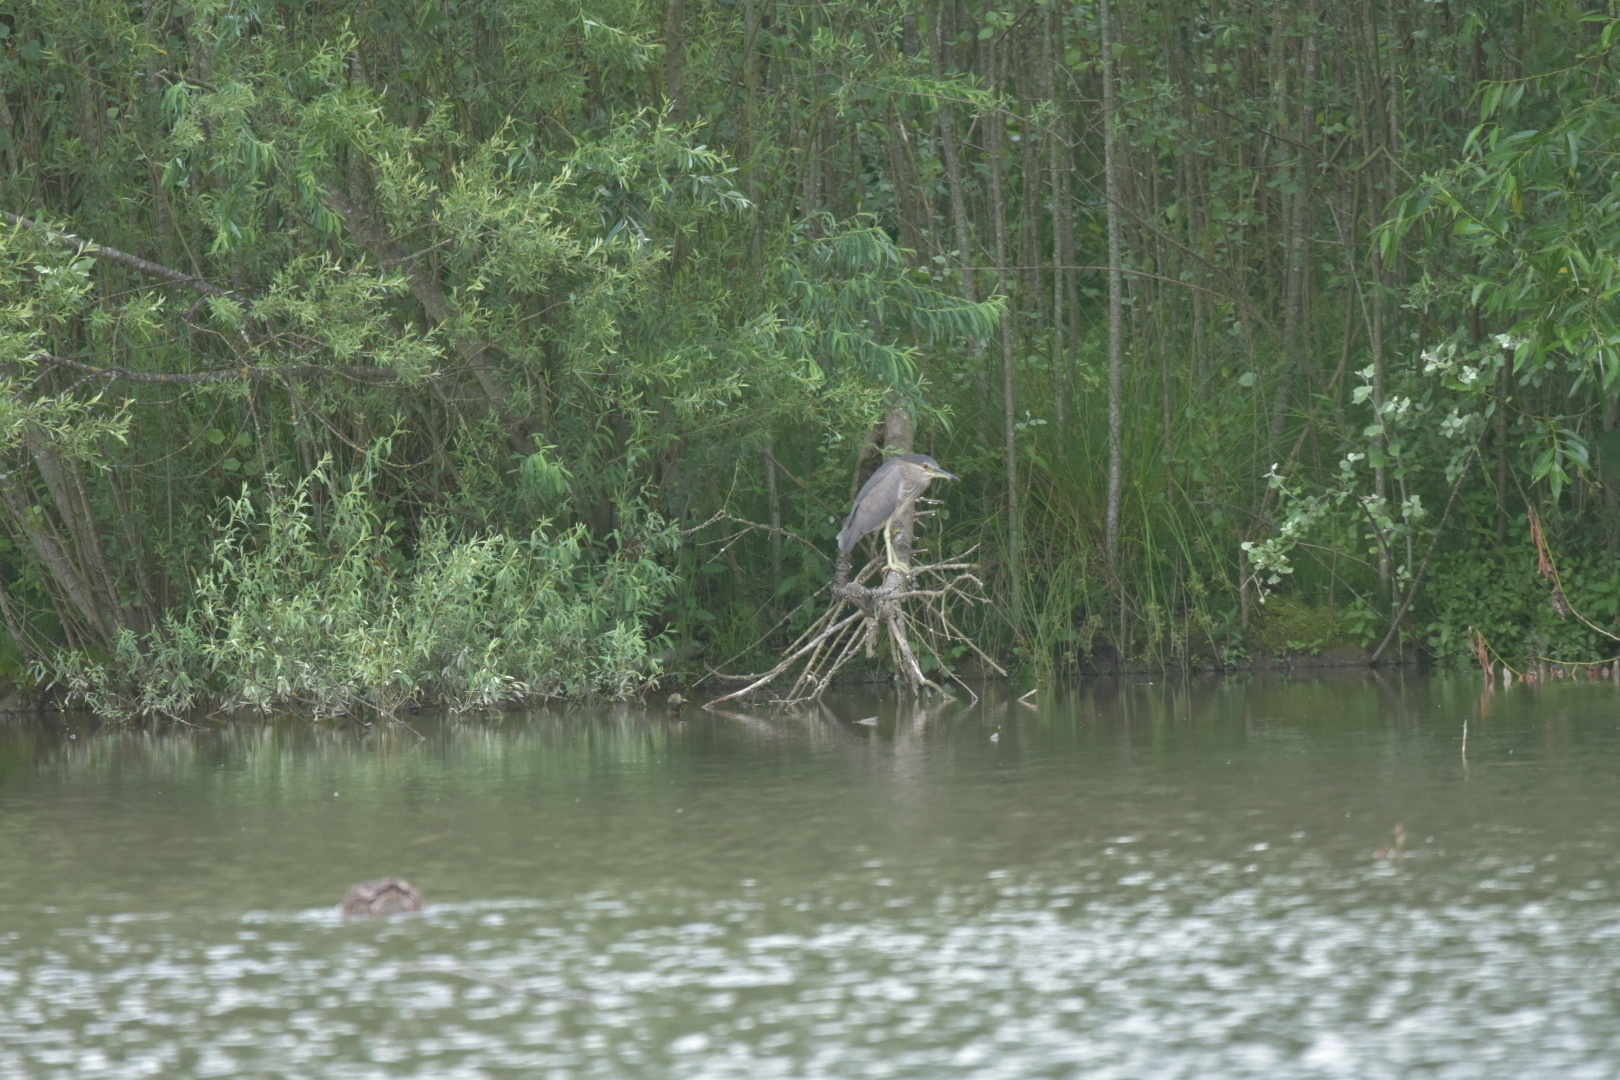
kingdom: Animalia
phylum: Chordata
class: Aves
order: Pelecaniformes
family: Ardeidae
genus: Nycticorax
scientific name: Nycticorax nycticorax
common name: Black-crowned night heron
